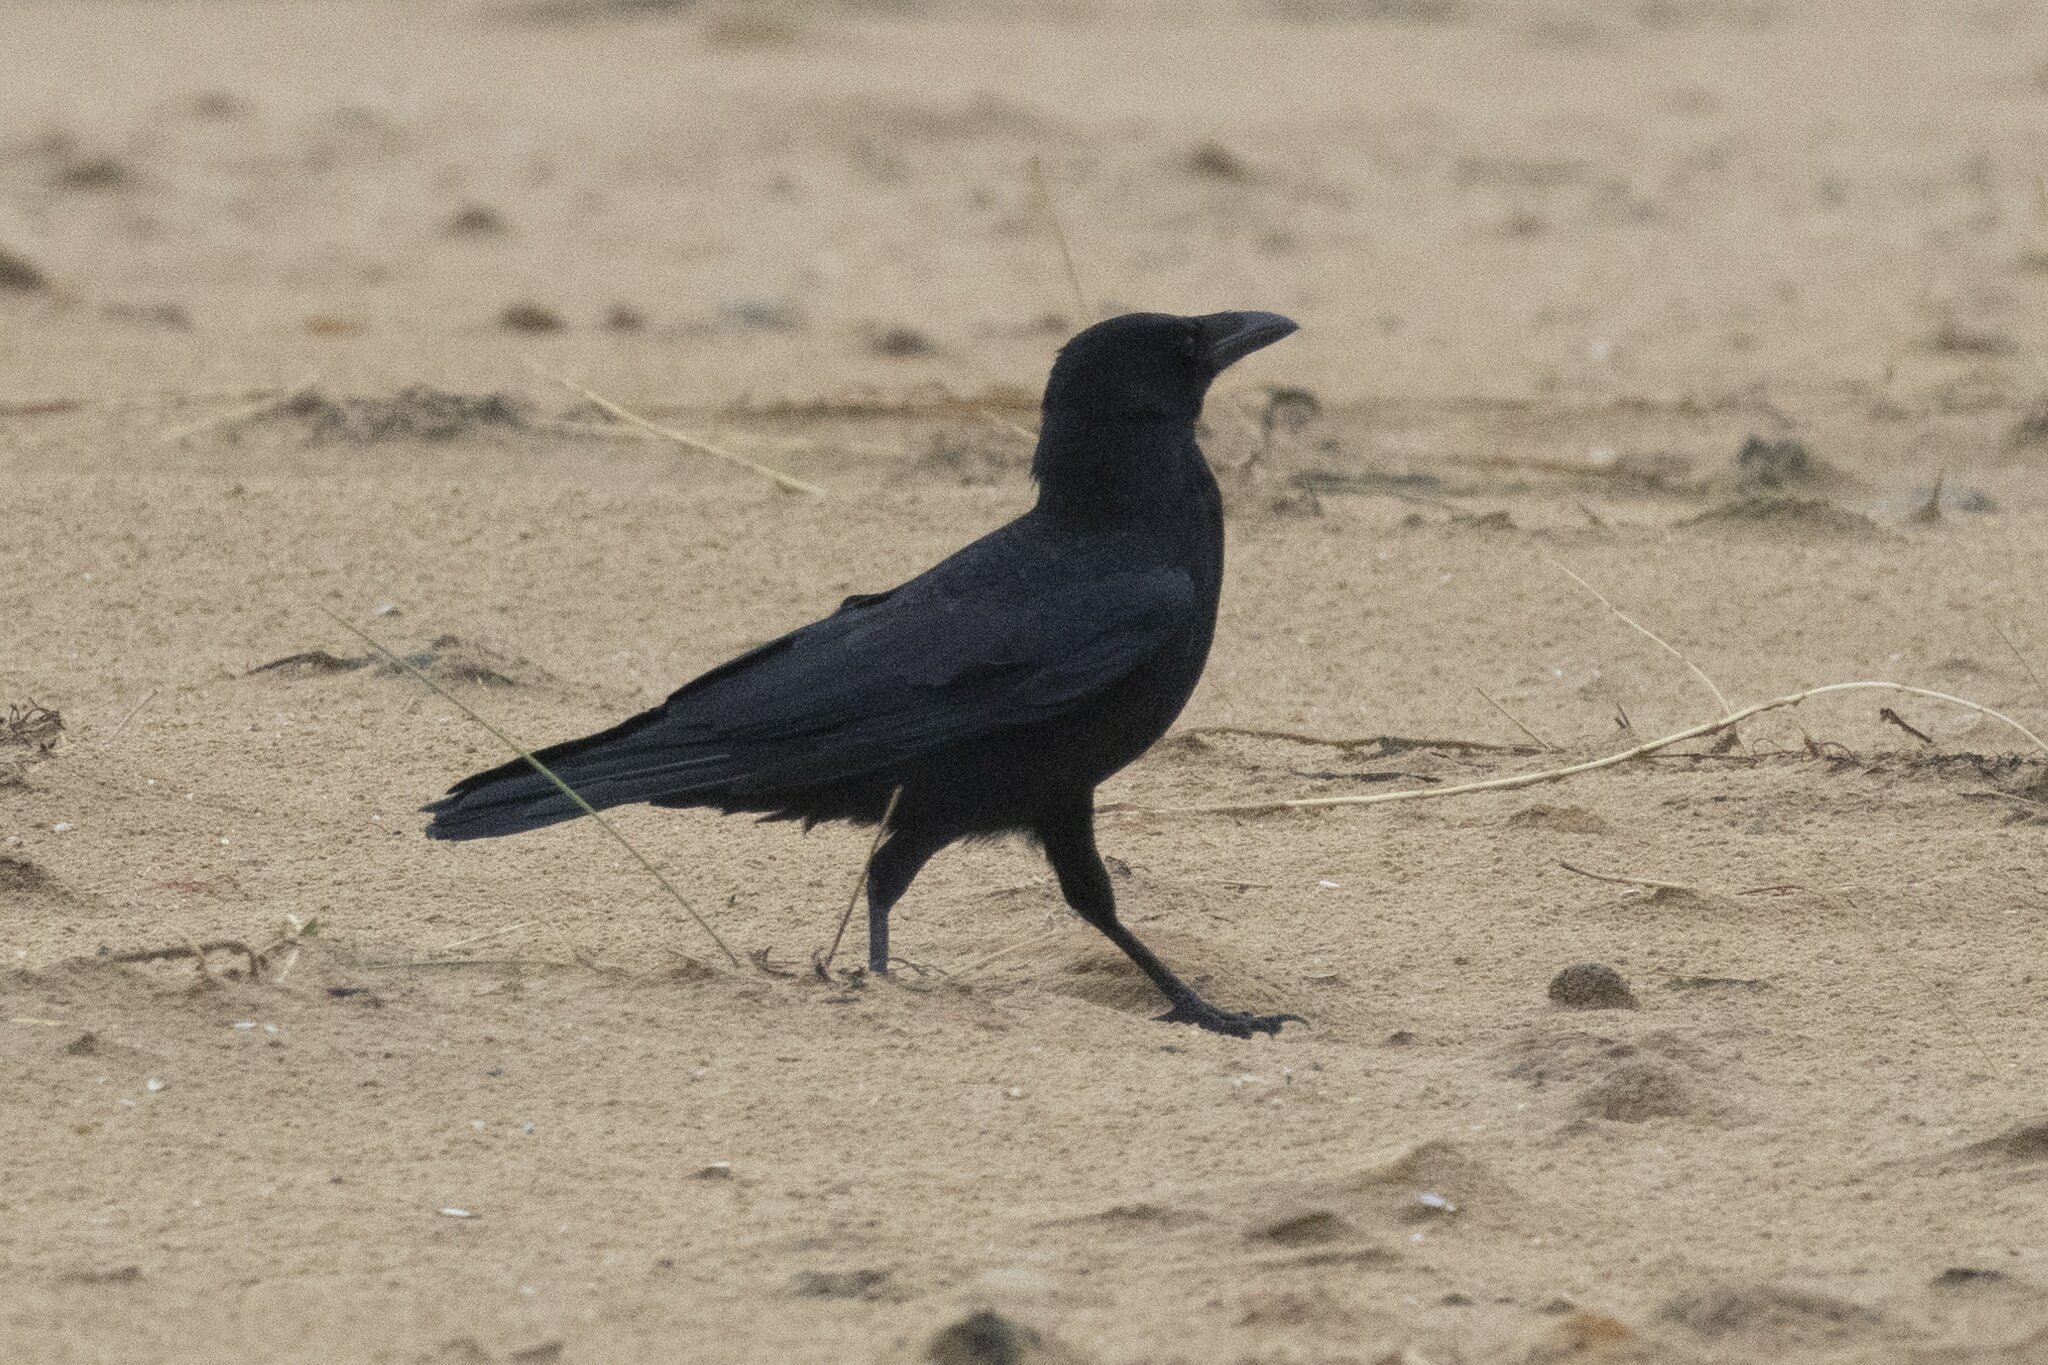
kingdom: Animalia
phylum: Chordata
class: Aves
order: Passeriformes
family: Corvidae
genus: Corvus
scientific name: Corvus corone
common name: Carrion crow
